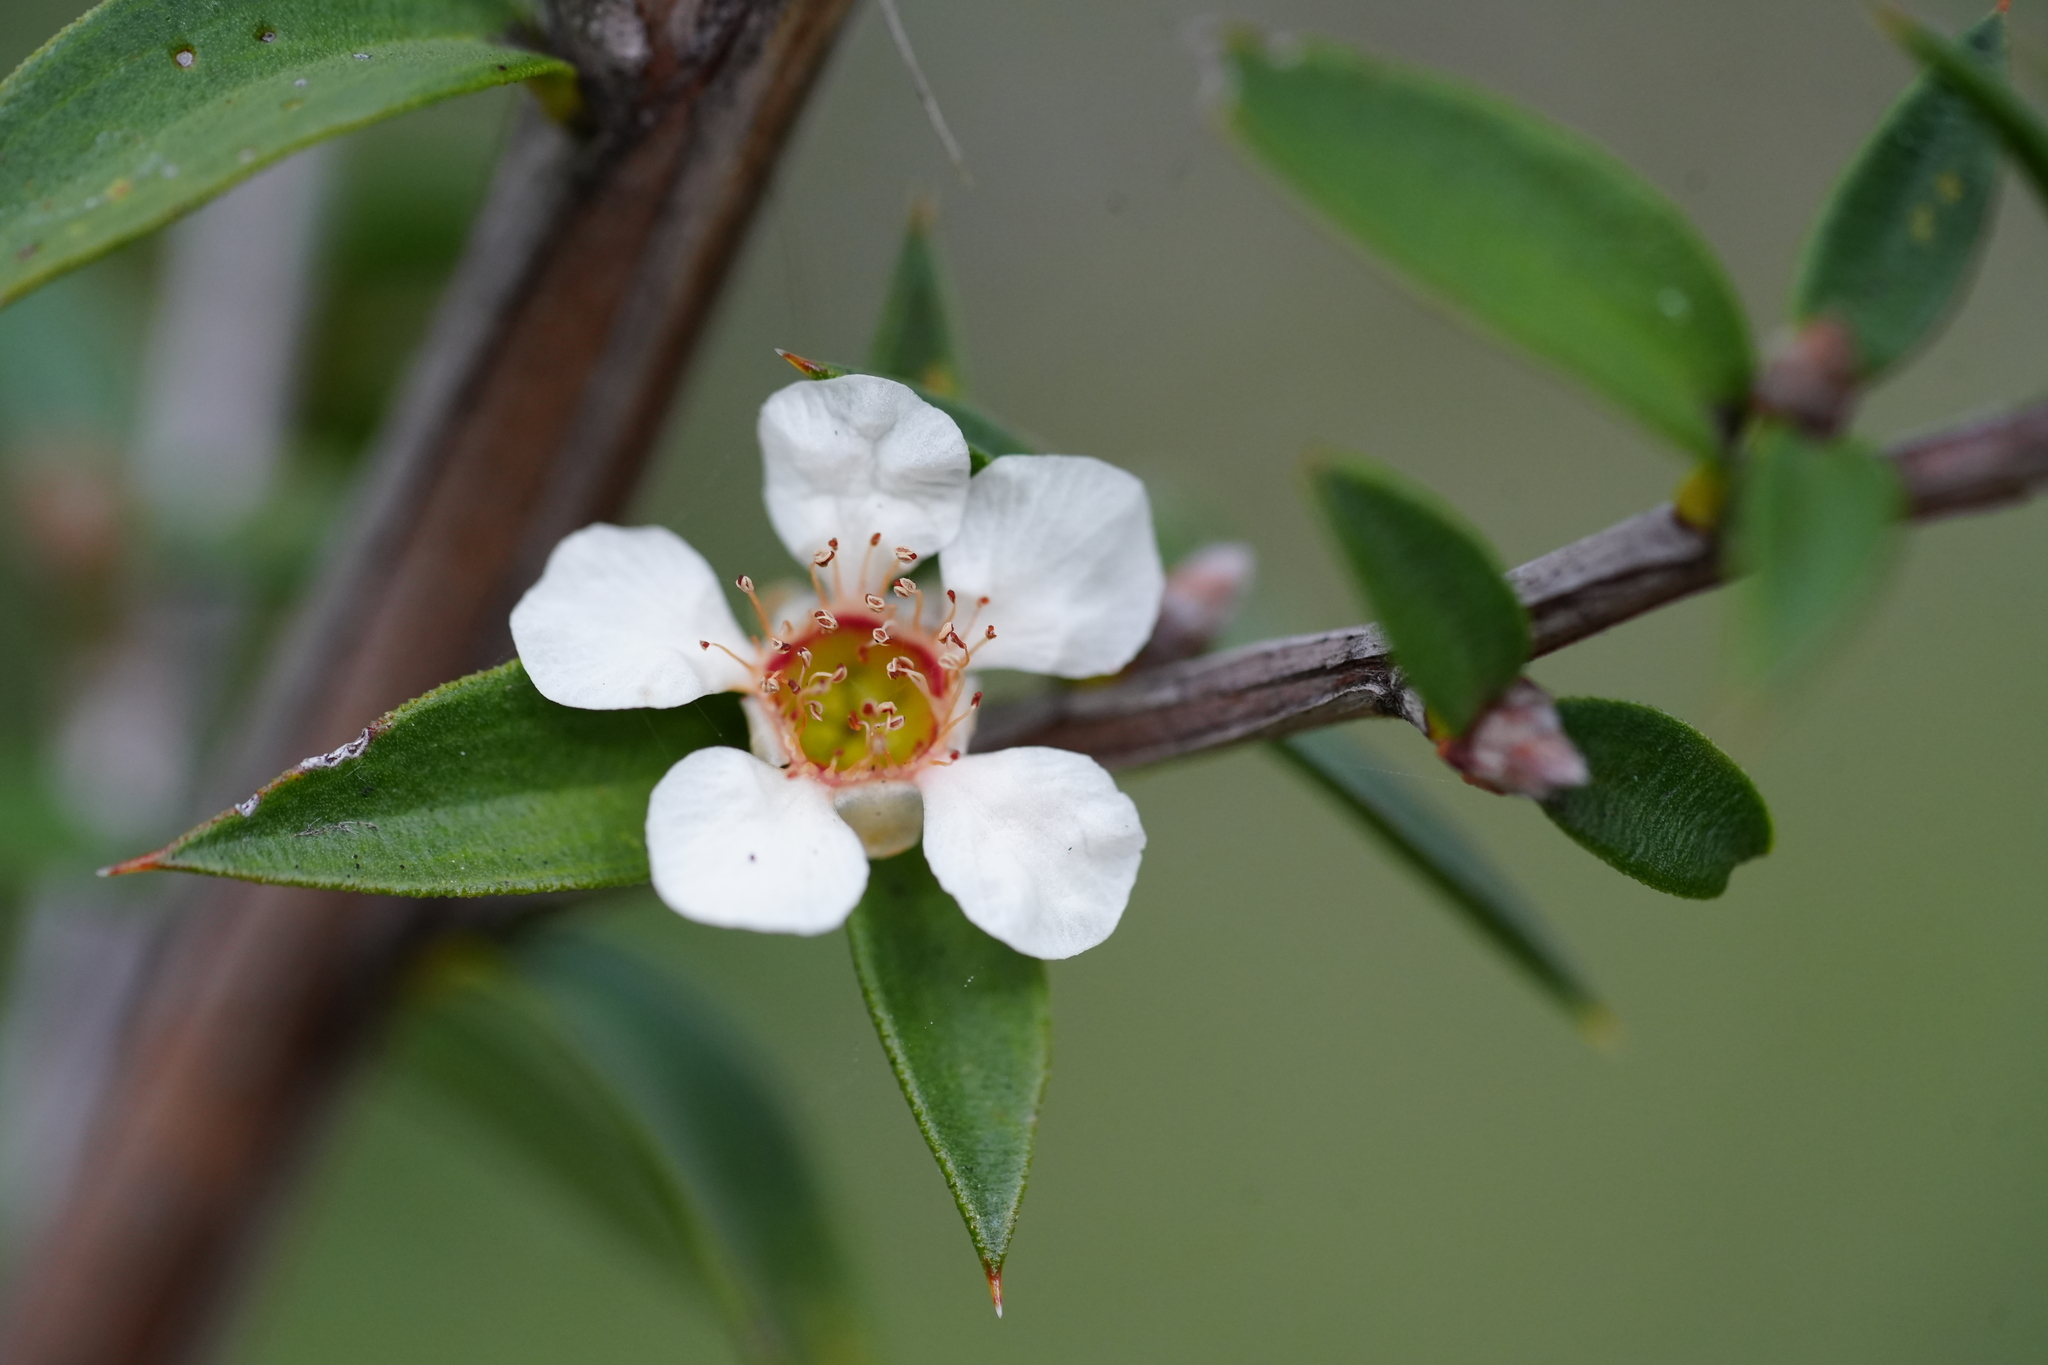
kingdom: Plantae
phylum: Tracheophyta
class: Magnoliopsida
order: Myrtales
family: Myrtaceae
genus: Leptospermum
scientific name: Leptospermum scoparium
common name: Broom tea-tree
